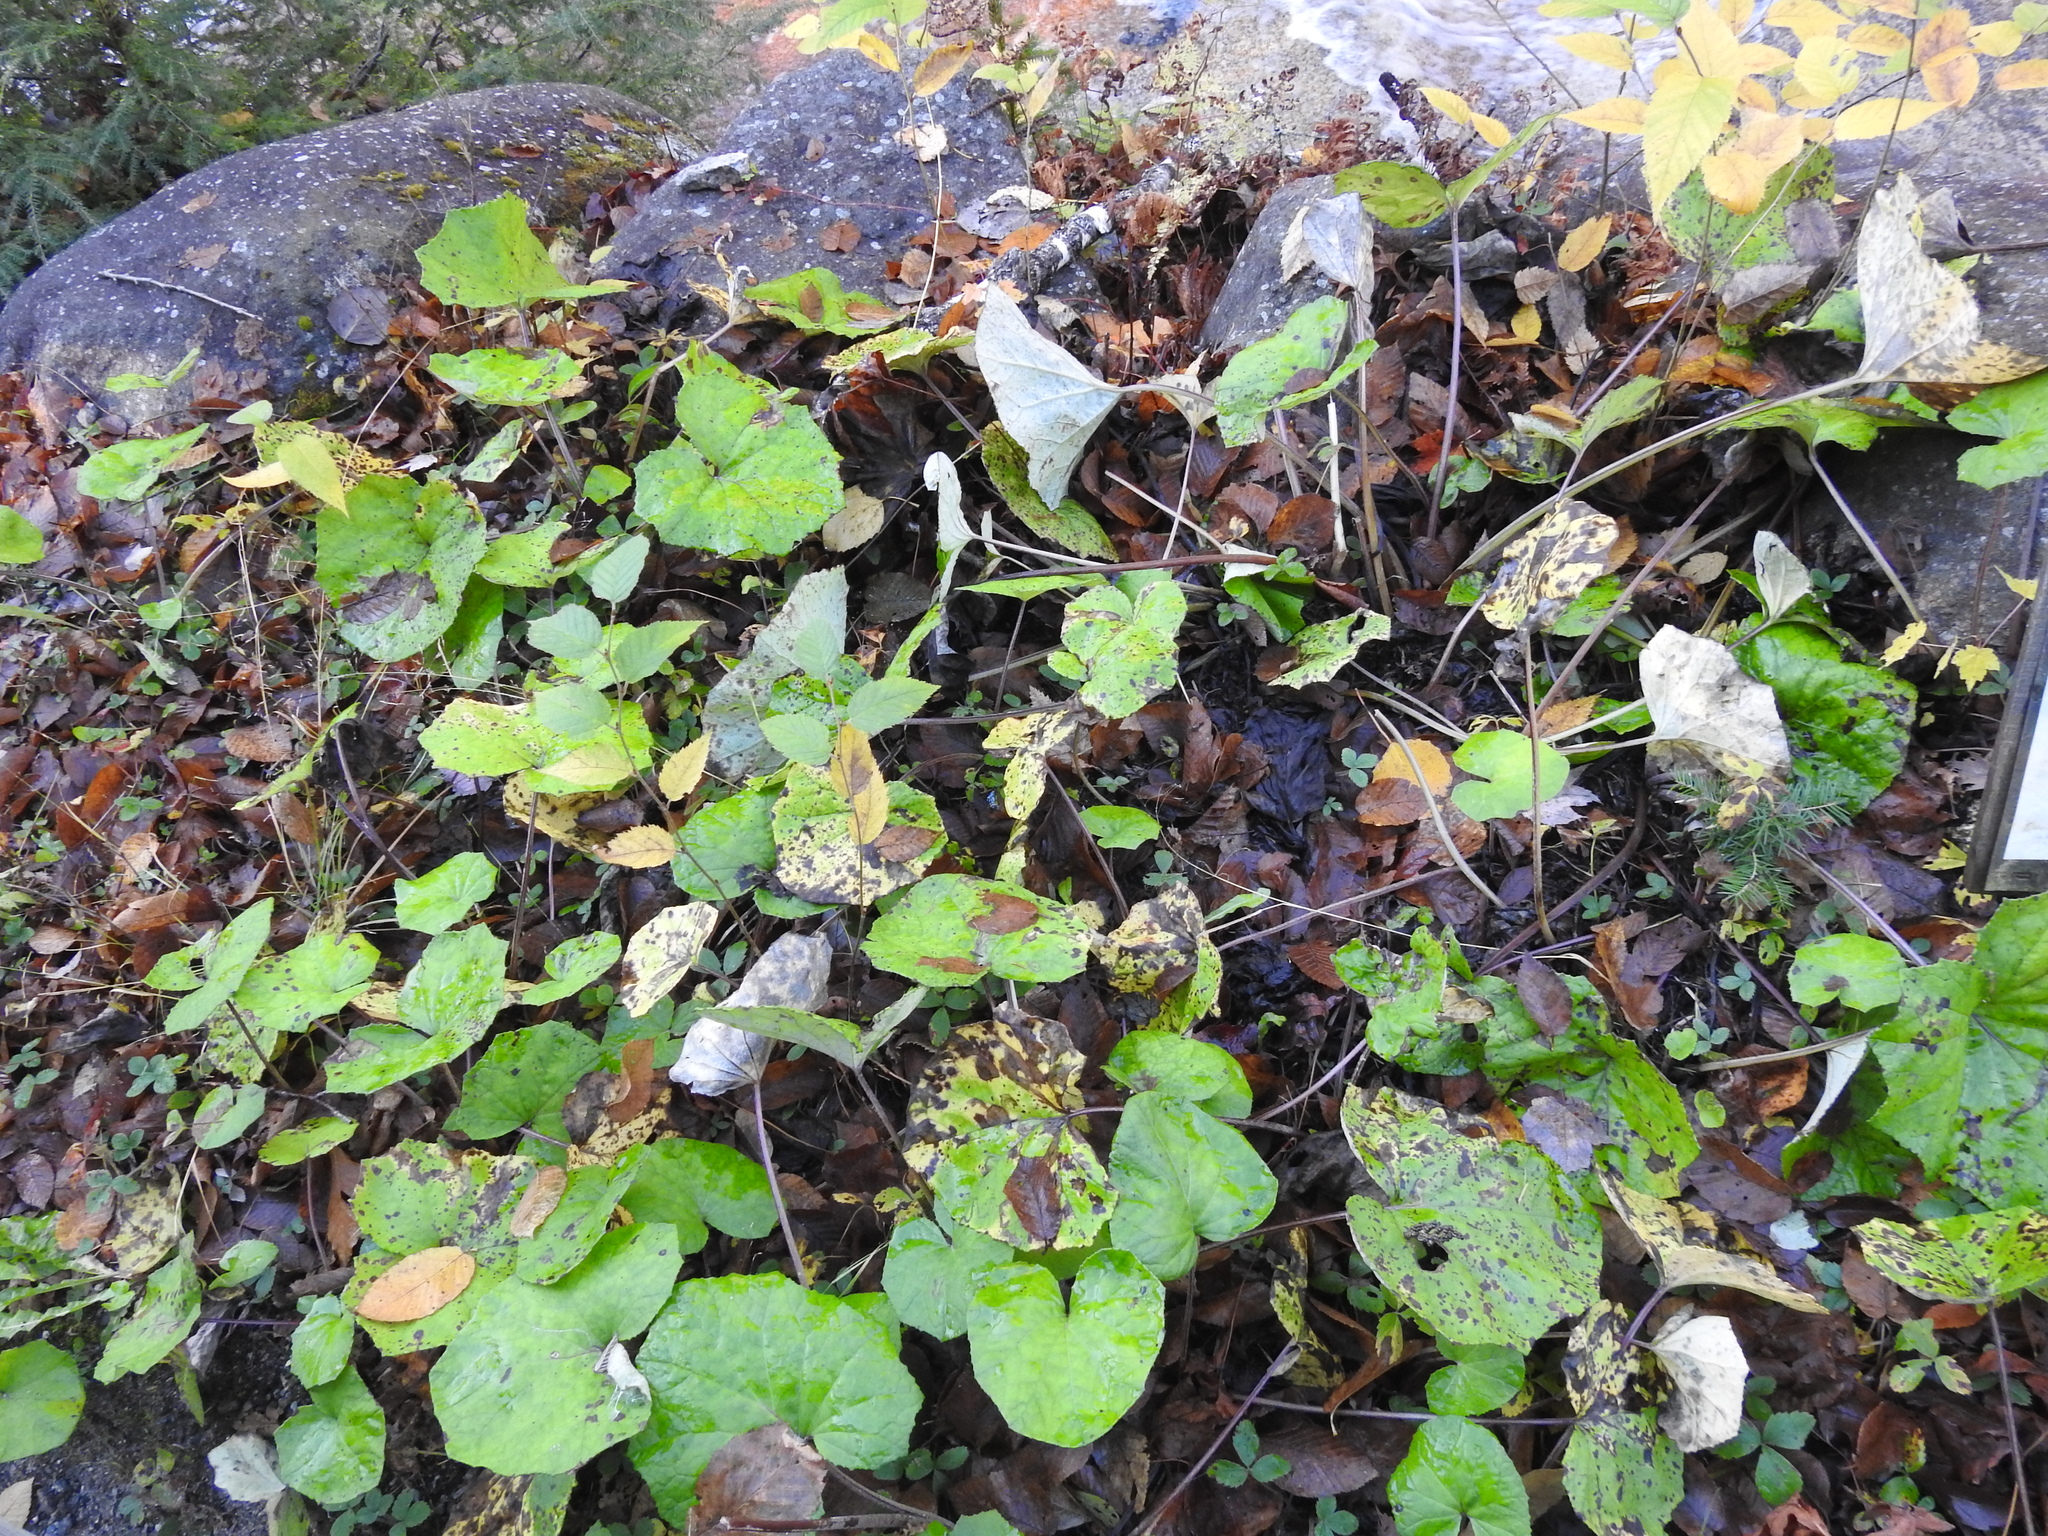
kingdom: Plantae
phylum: Tracheophyta
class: Magnoliopsida
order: Asterales
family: Asteraceae
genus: Tussilago
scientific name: Tussilago farfara
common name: Coltsfoot
